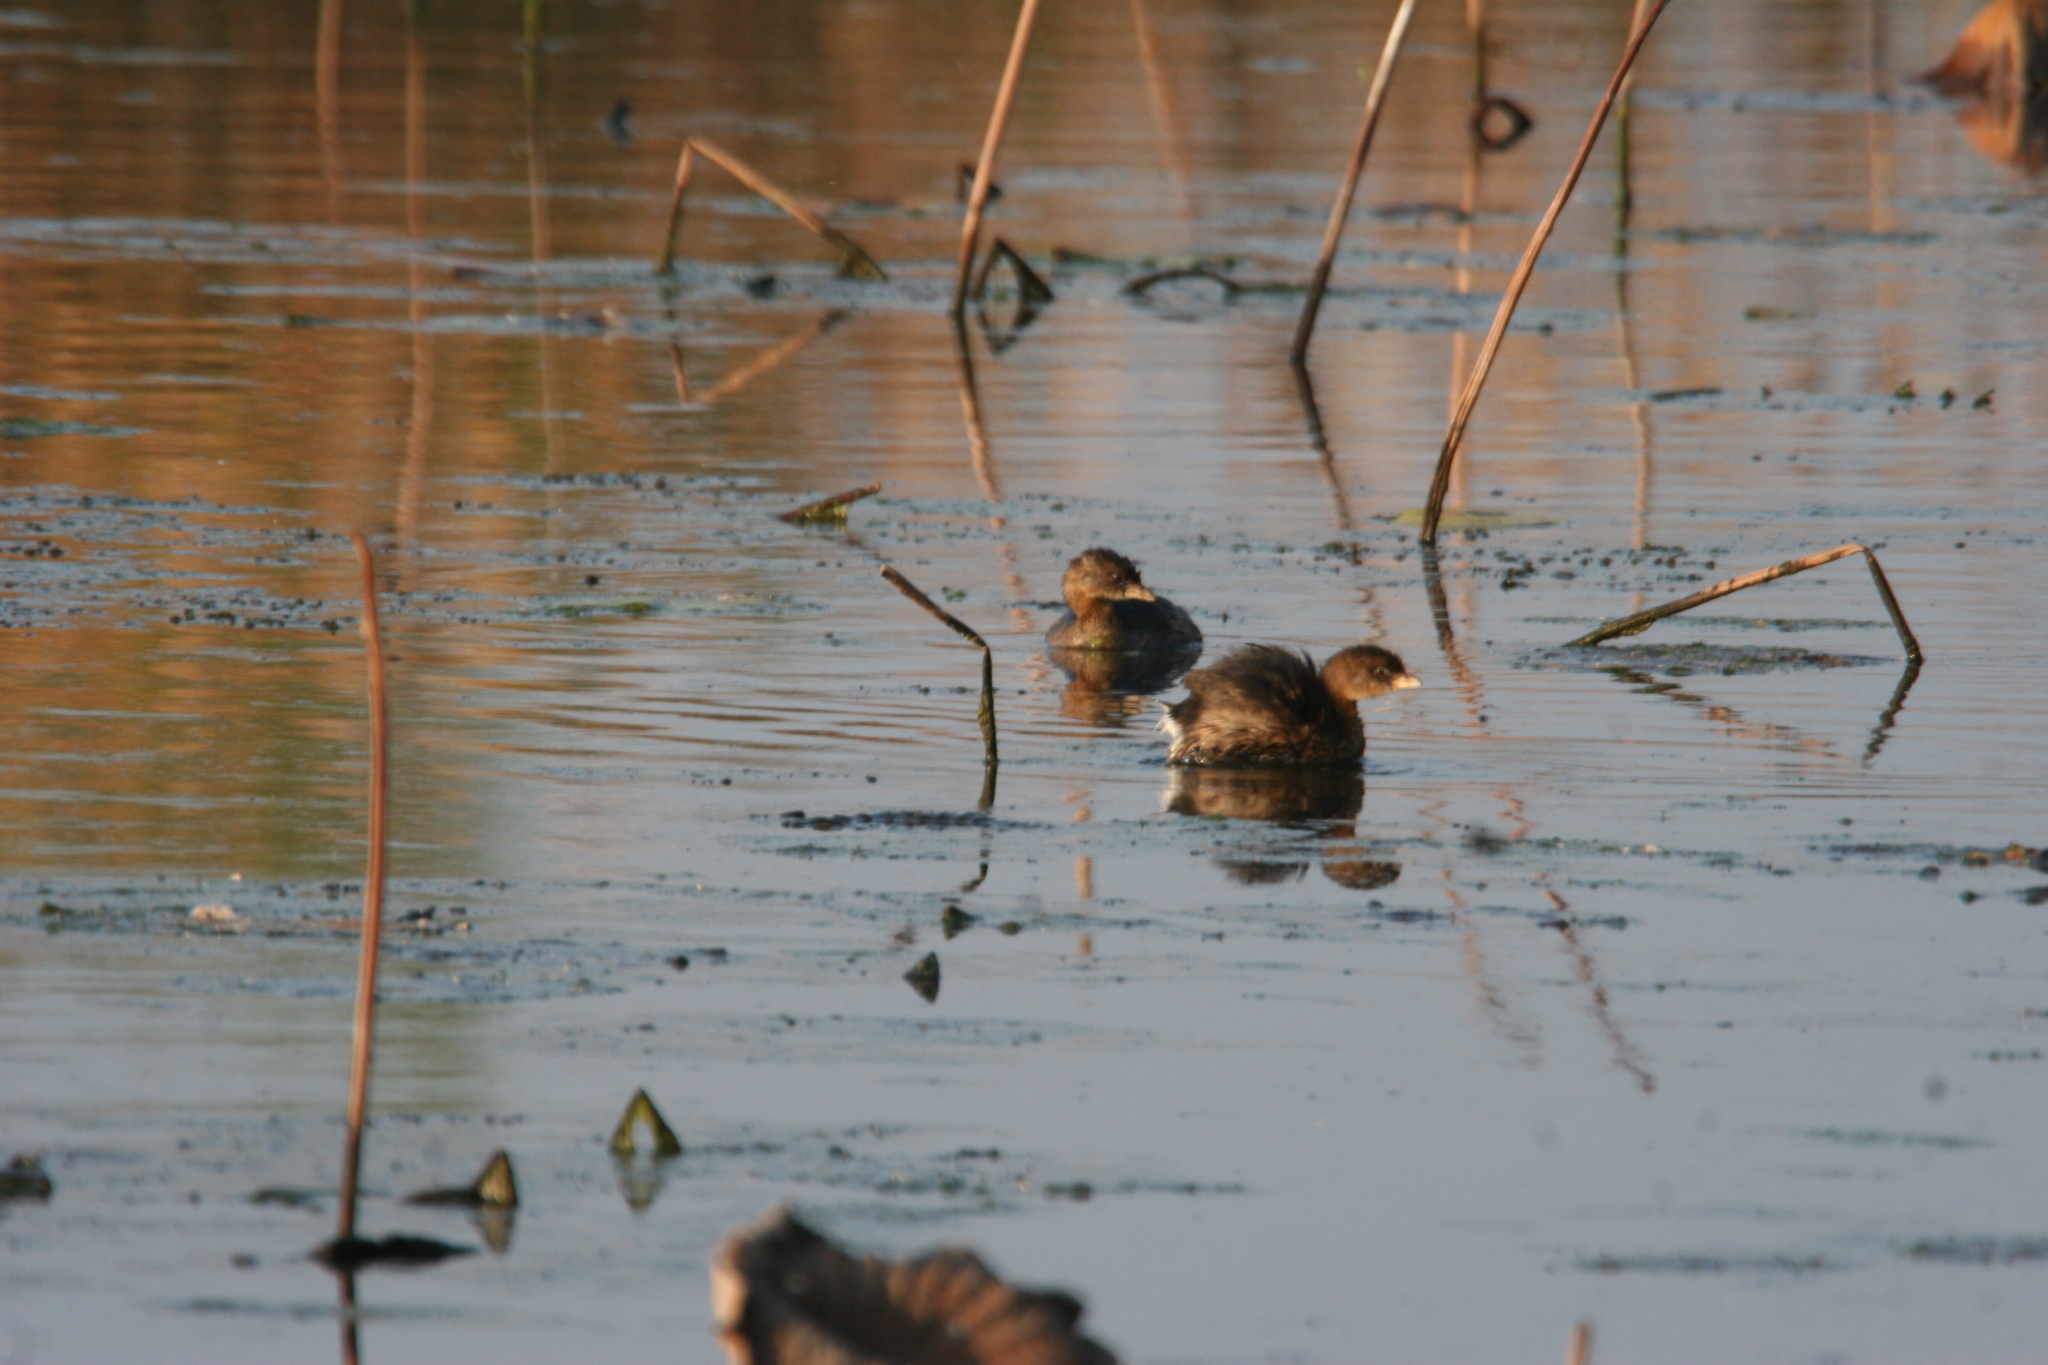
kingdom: Animalia
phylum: Chordata
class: Aves
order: Podicipediformes
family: Podicipedidae
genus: Podilymbus
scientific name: Podilymbus podiceps
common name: Pied-billed grebe
